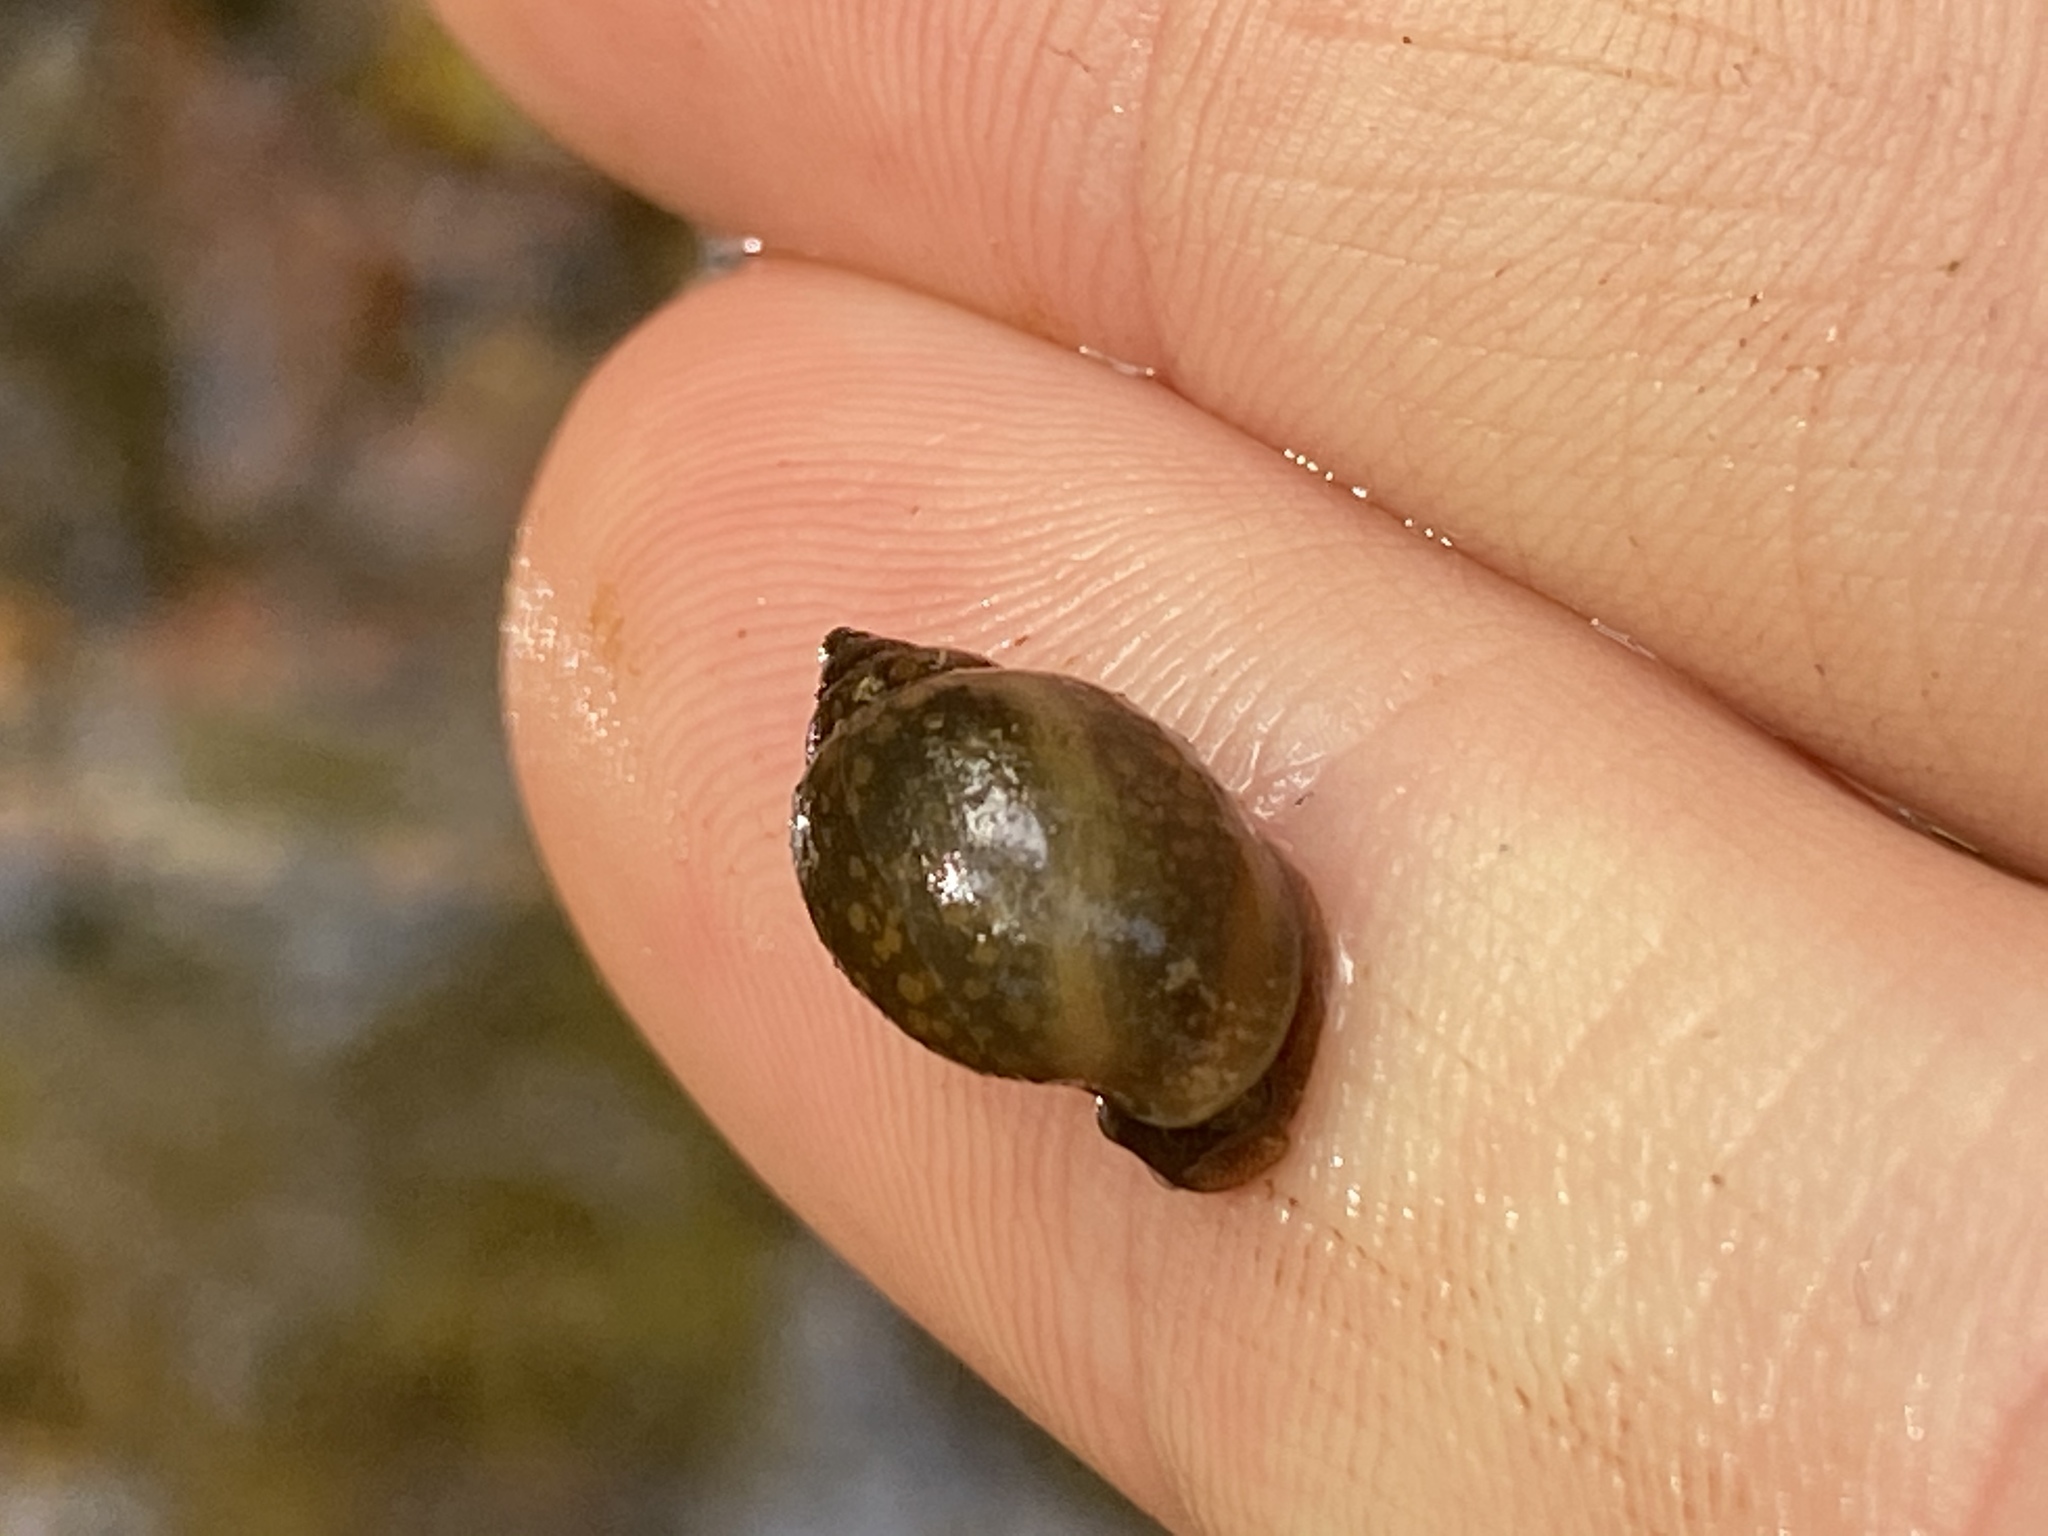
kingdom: Animalia
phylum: Mollusca
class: Gastropoda
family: Physidae
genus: Physella
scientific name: Physella acuta
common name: European physa
